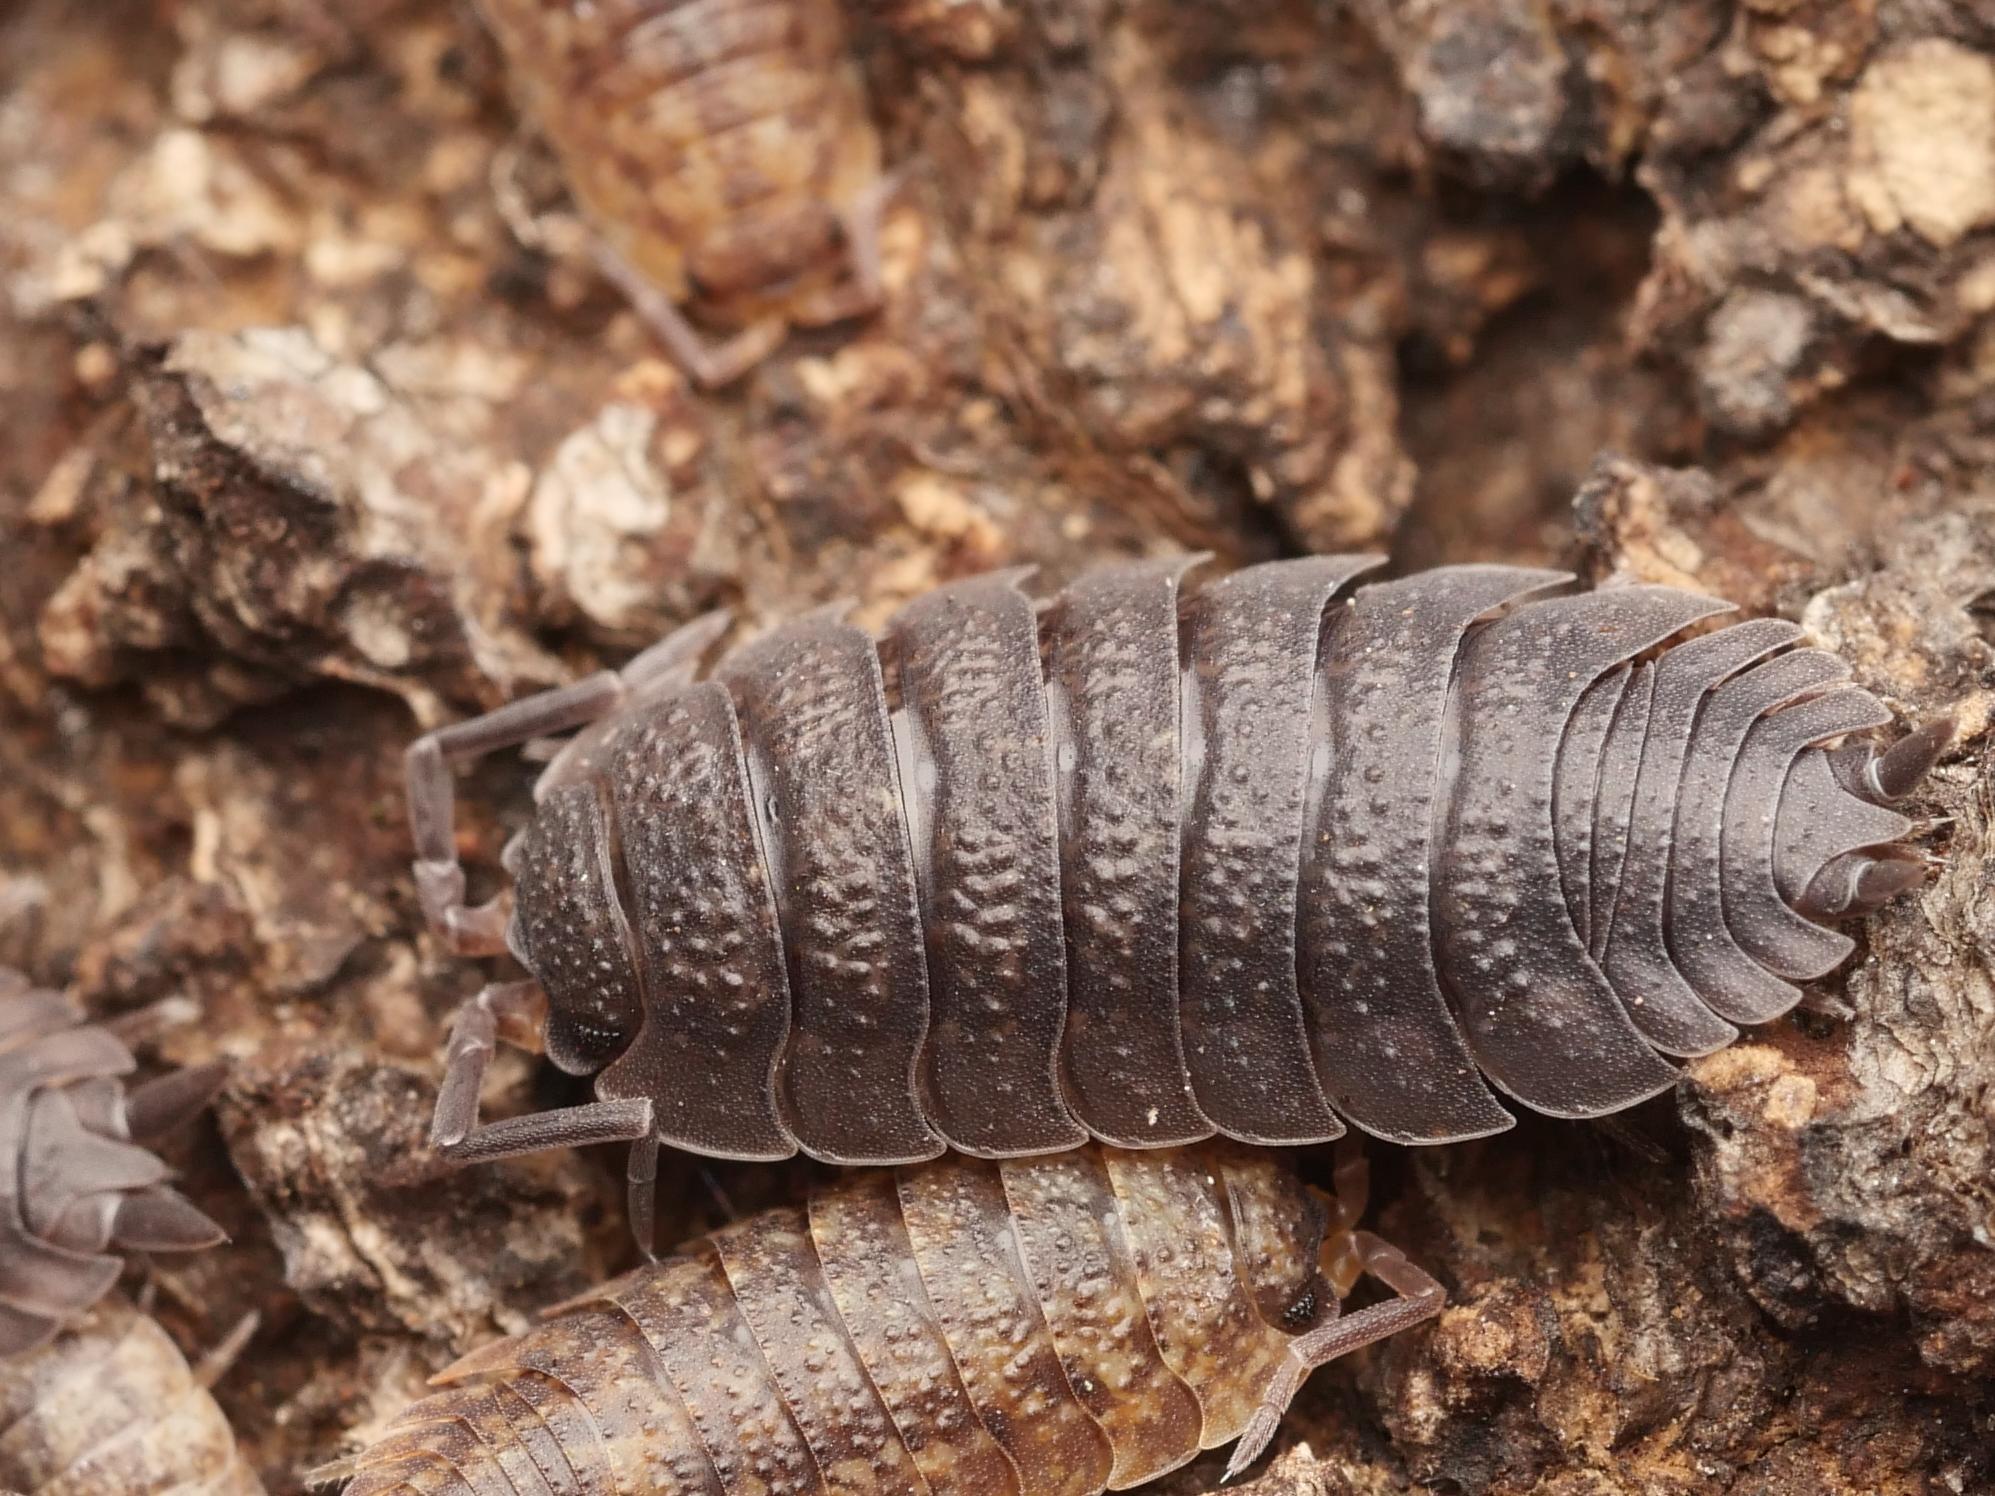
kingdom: Animalia
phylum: Arthropoda
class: Malacostraca
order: Isopoda
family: Porcellionidae
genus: Porcellio
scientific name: Porcellio scaber
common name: Common rough woodlouse
